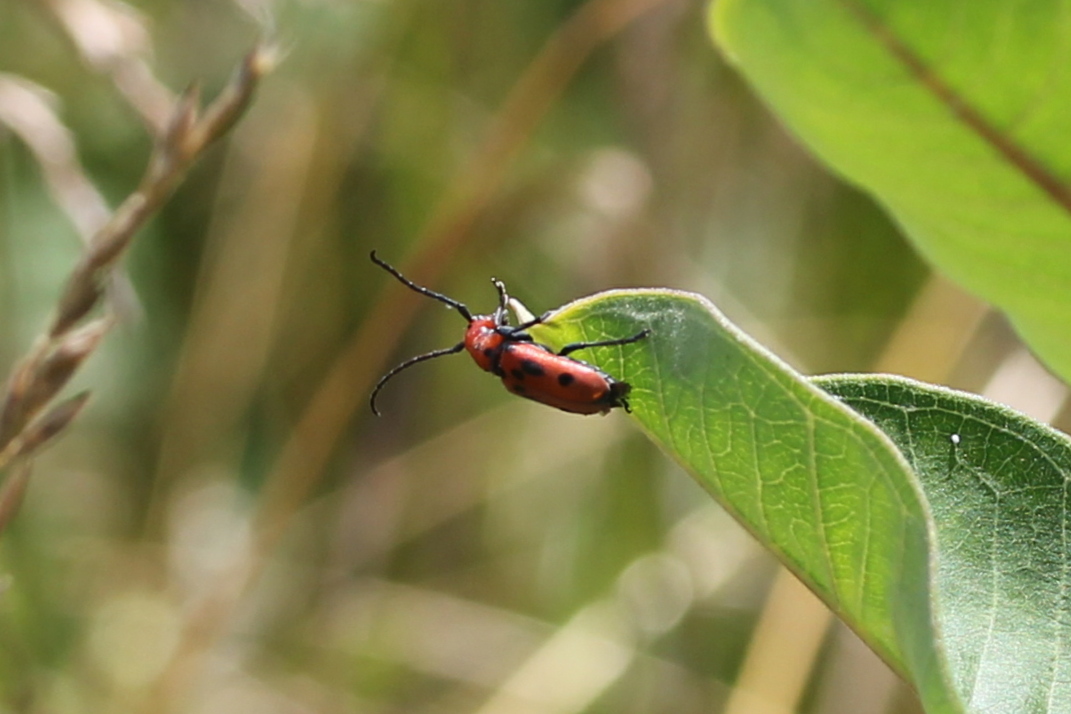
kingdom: Animalia
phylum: Arthropoda
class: Insecta
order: Coleoptera
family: Cerambycidae
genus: Tetraopes
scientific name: Tetraopes tetrophthalmus
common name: Red milkweed beetle
